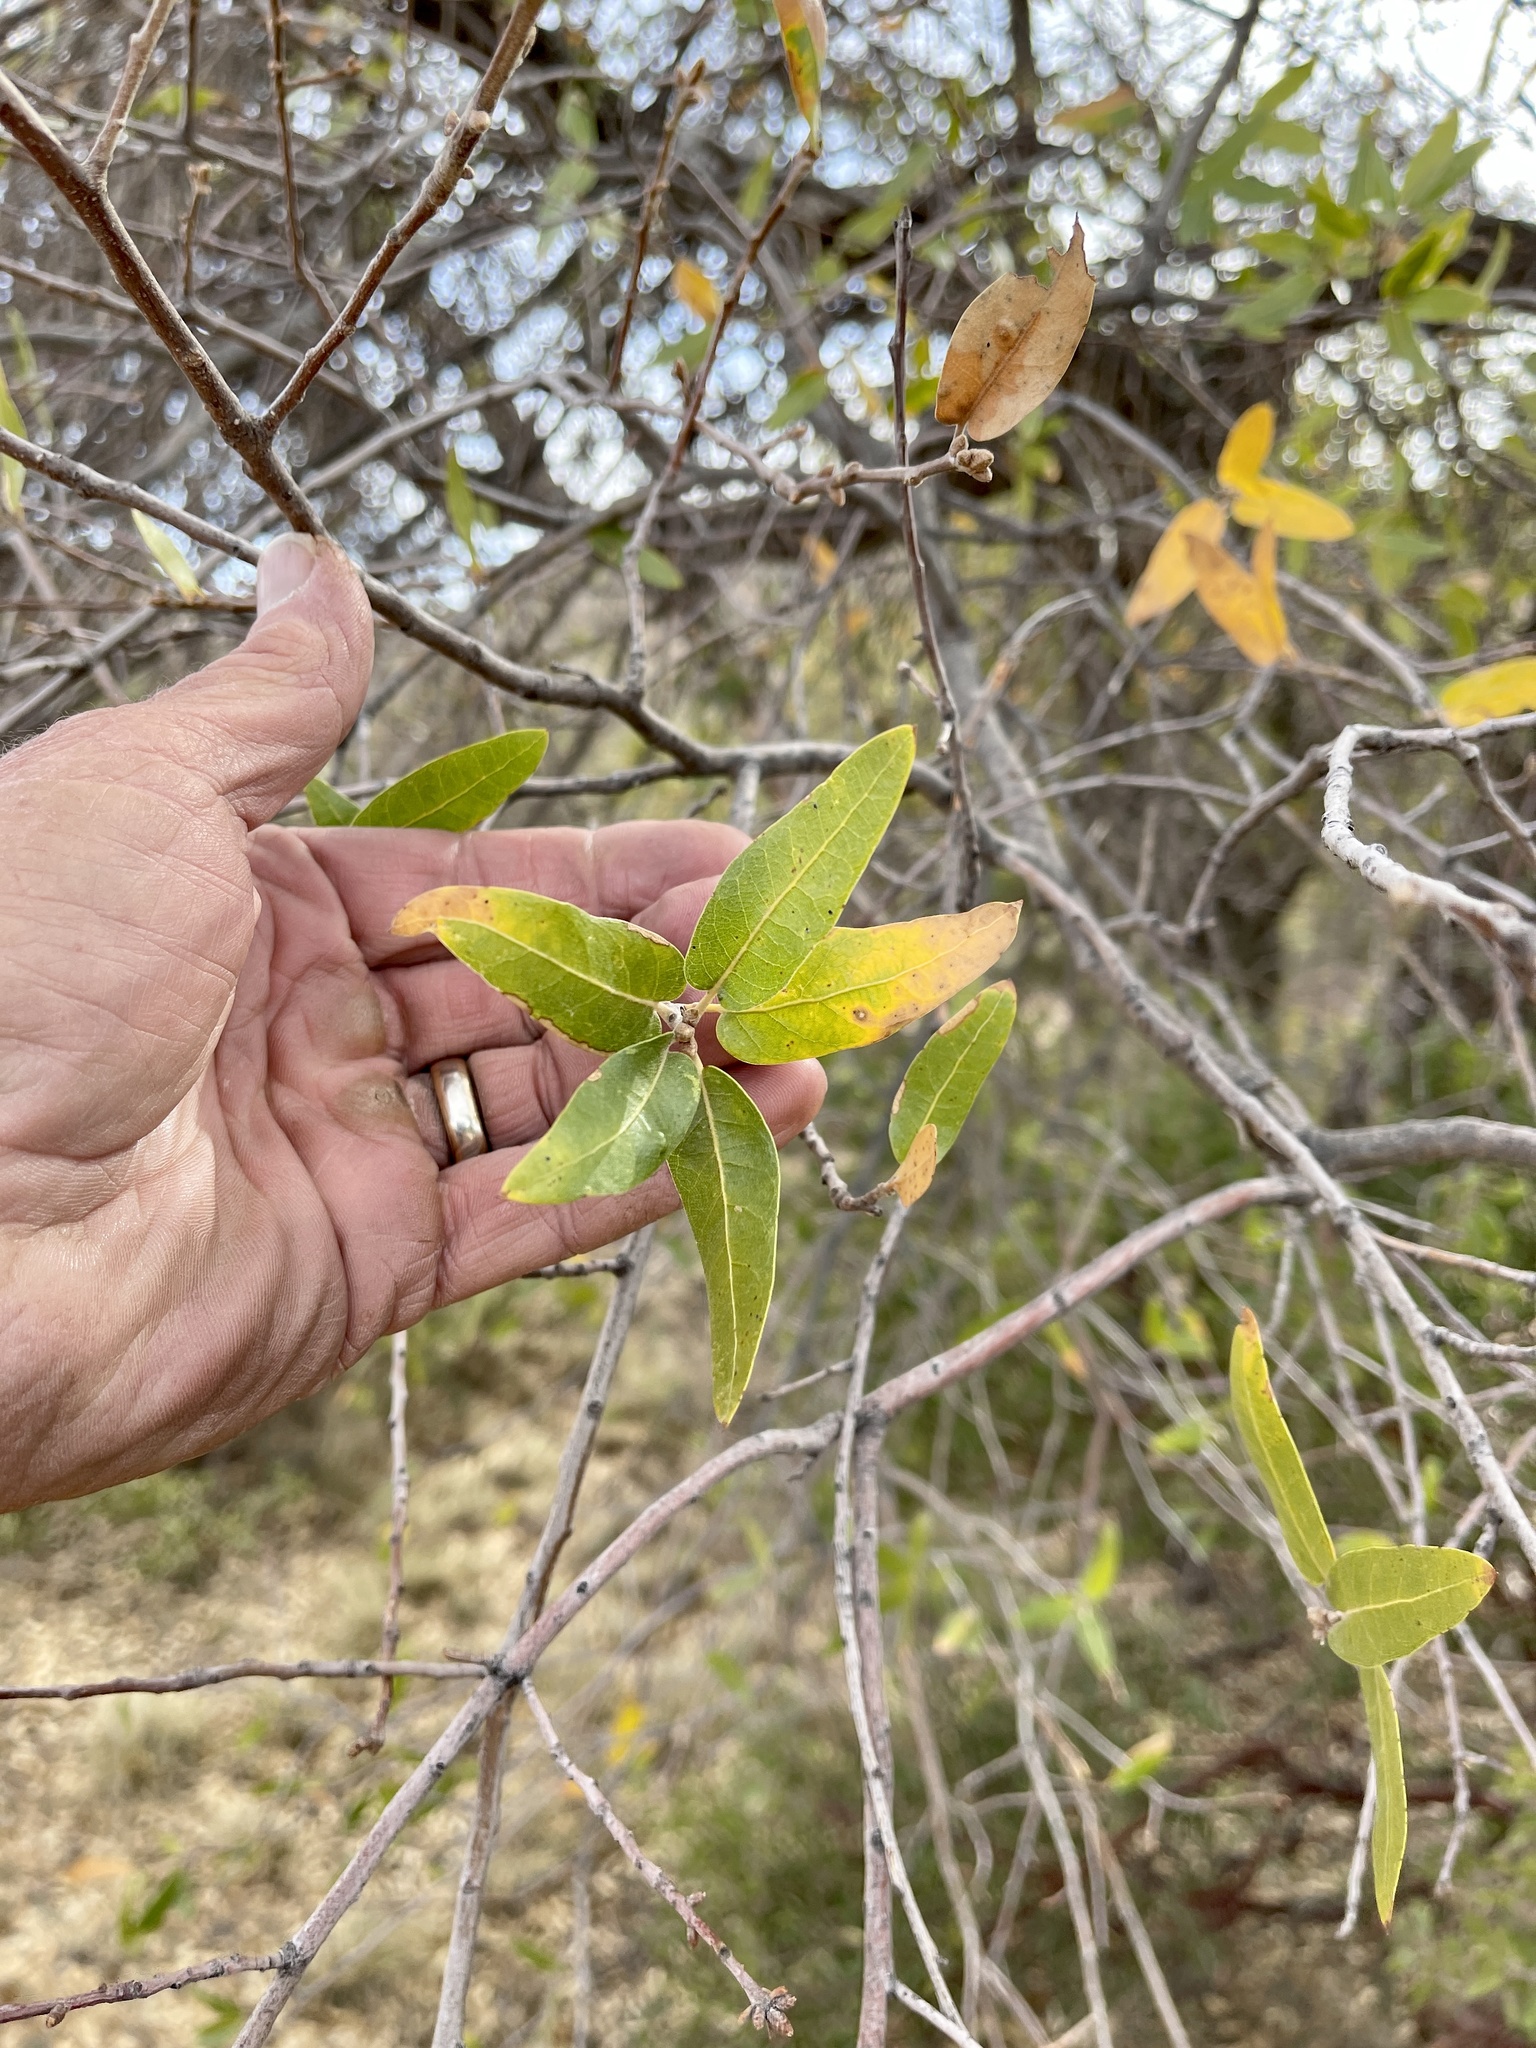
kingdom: Plantae
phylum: Tracheophyta
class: Magnoliopsida
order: Fagales
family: Fagaceae
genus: Quercus
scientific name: Quercus grisea
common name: Gray oak
